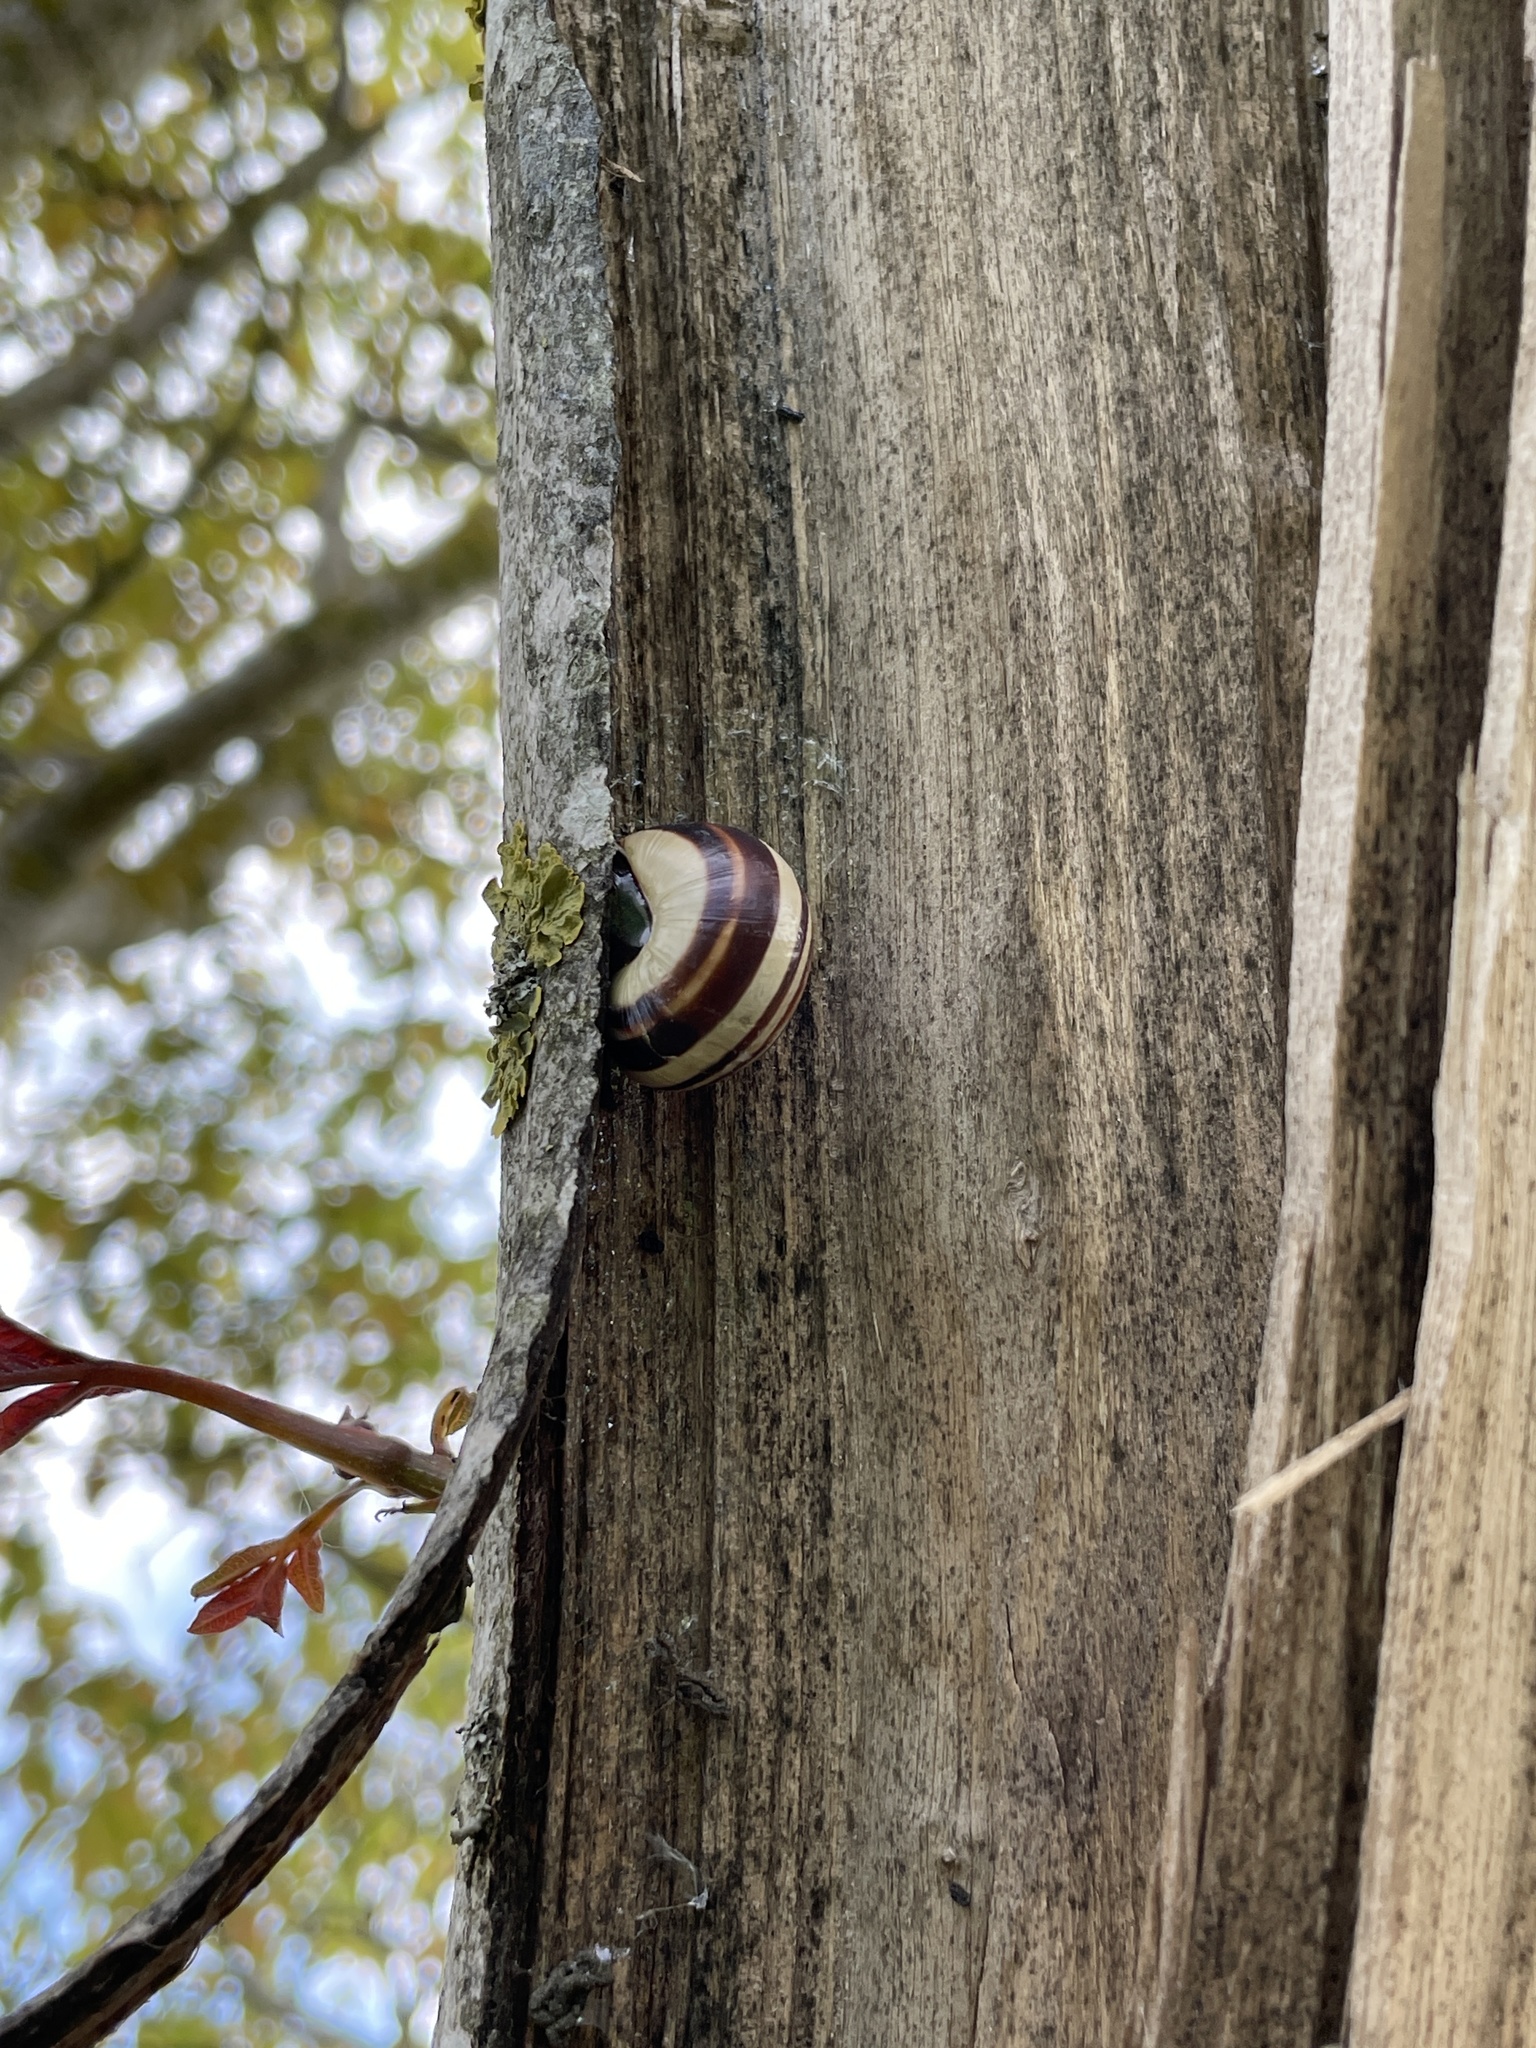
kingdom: Animalia
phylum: Mollusca
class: Gastropoda
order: Stylommatophora
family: Helicidae
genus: Cepaea
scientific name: Cepaea nemoralis
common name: Grovesnail
